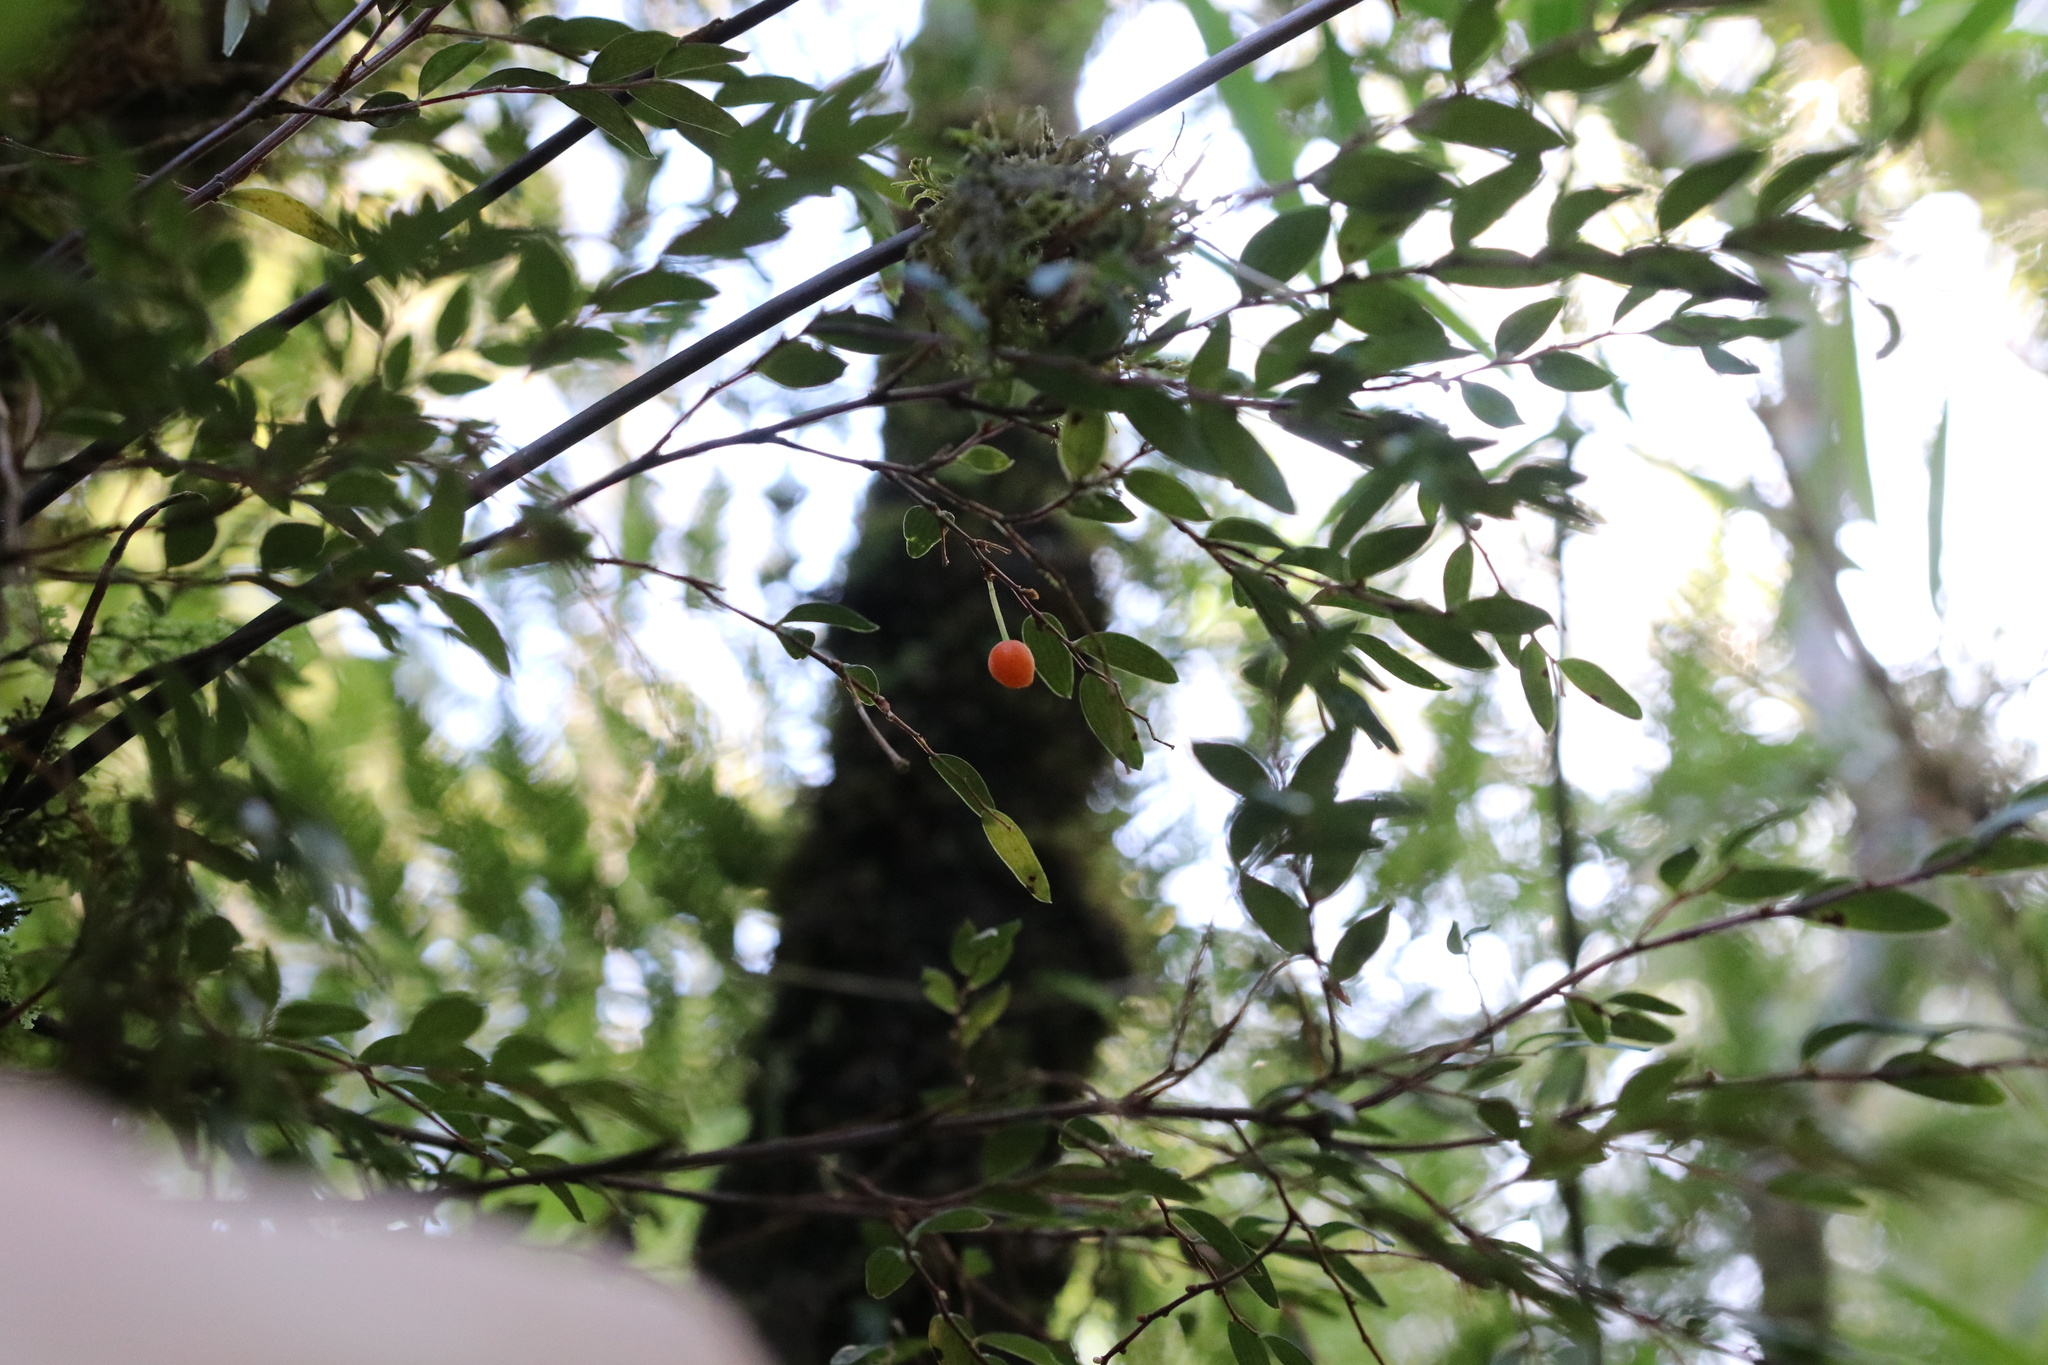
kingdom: Plantae
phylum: Tracheophyta
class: Liliopsida
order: Liliales
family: Alstroemeriaceae
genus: Luzuriaga
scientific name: Luzuriaga polyphylla
